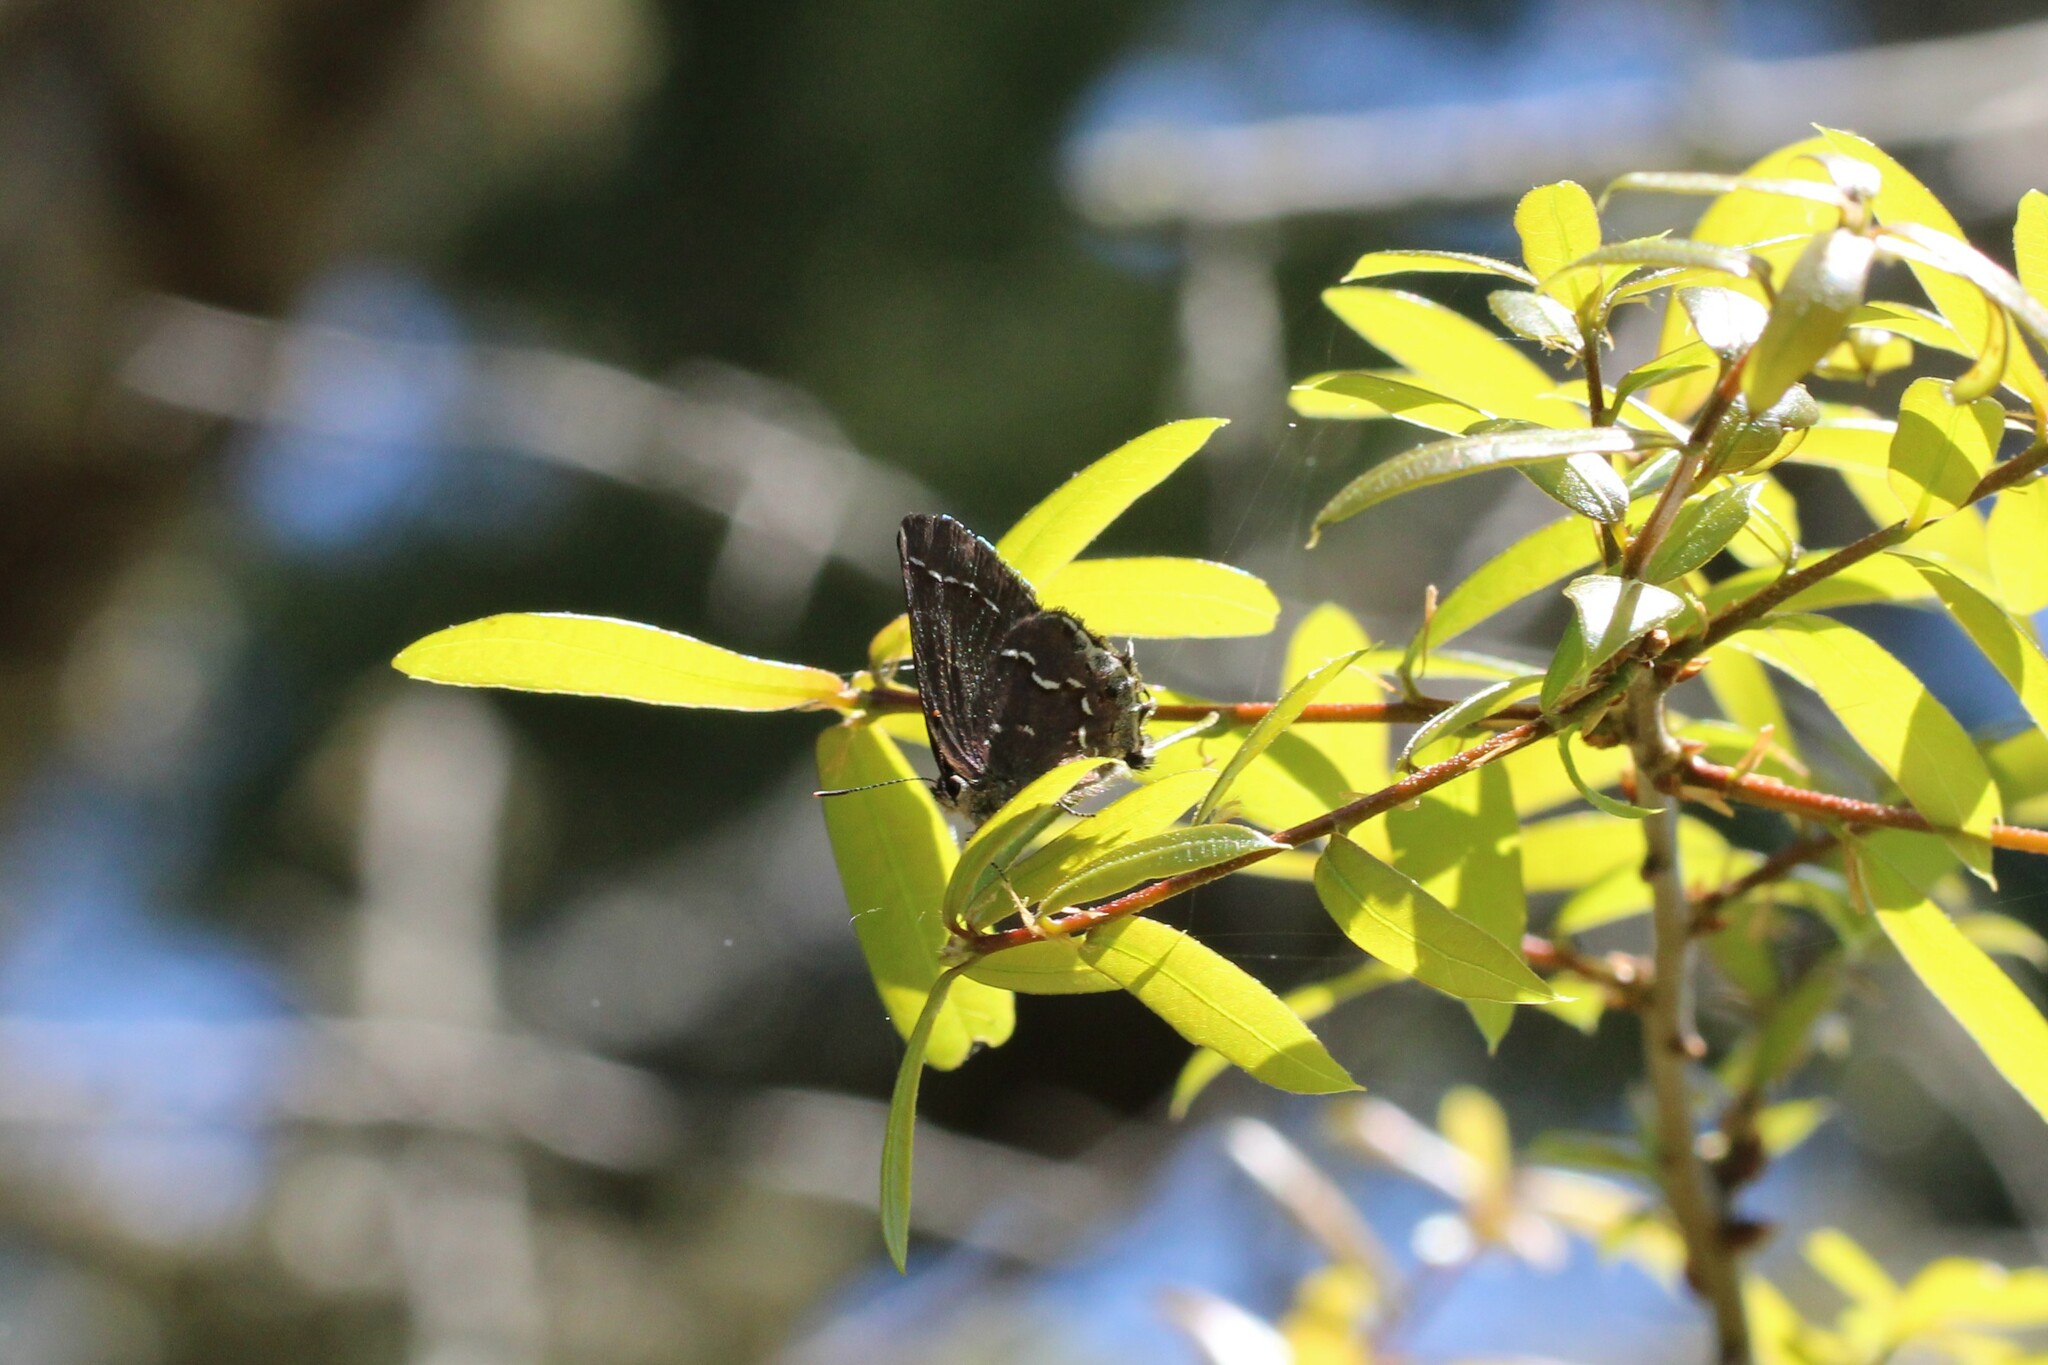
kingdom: Animalia
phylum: Arthropoda
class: Insecta
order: Lepidoptera
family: Lycaenidae
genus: Mitoura
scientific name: Mitoura gryneus
